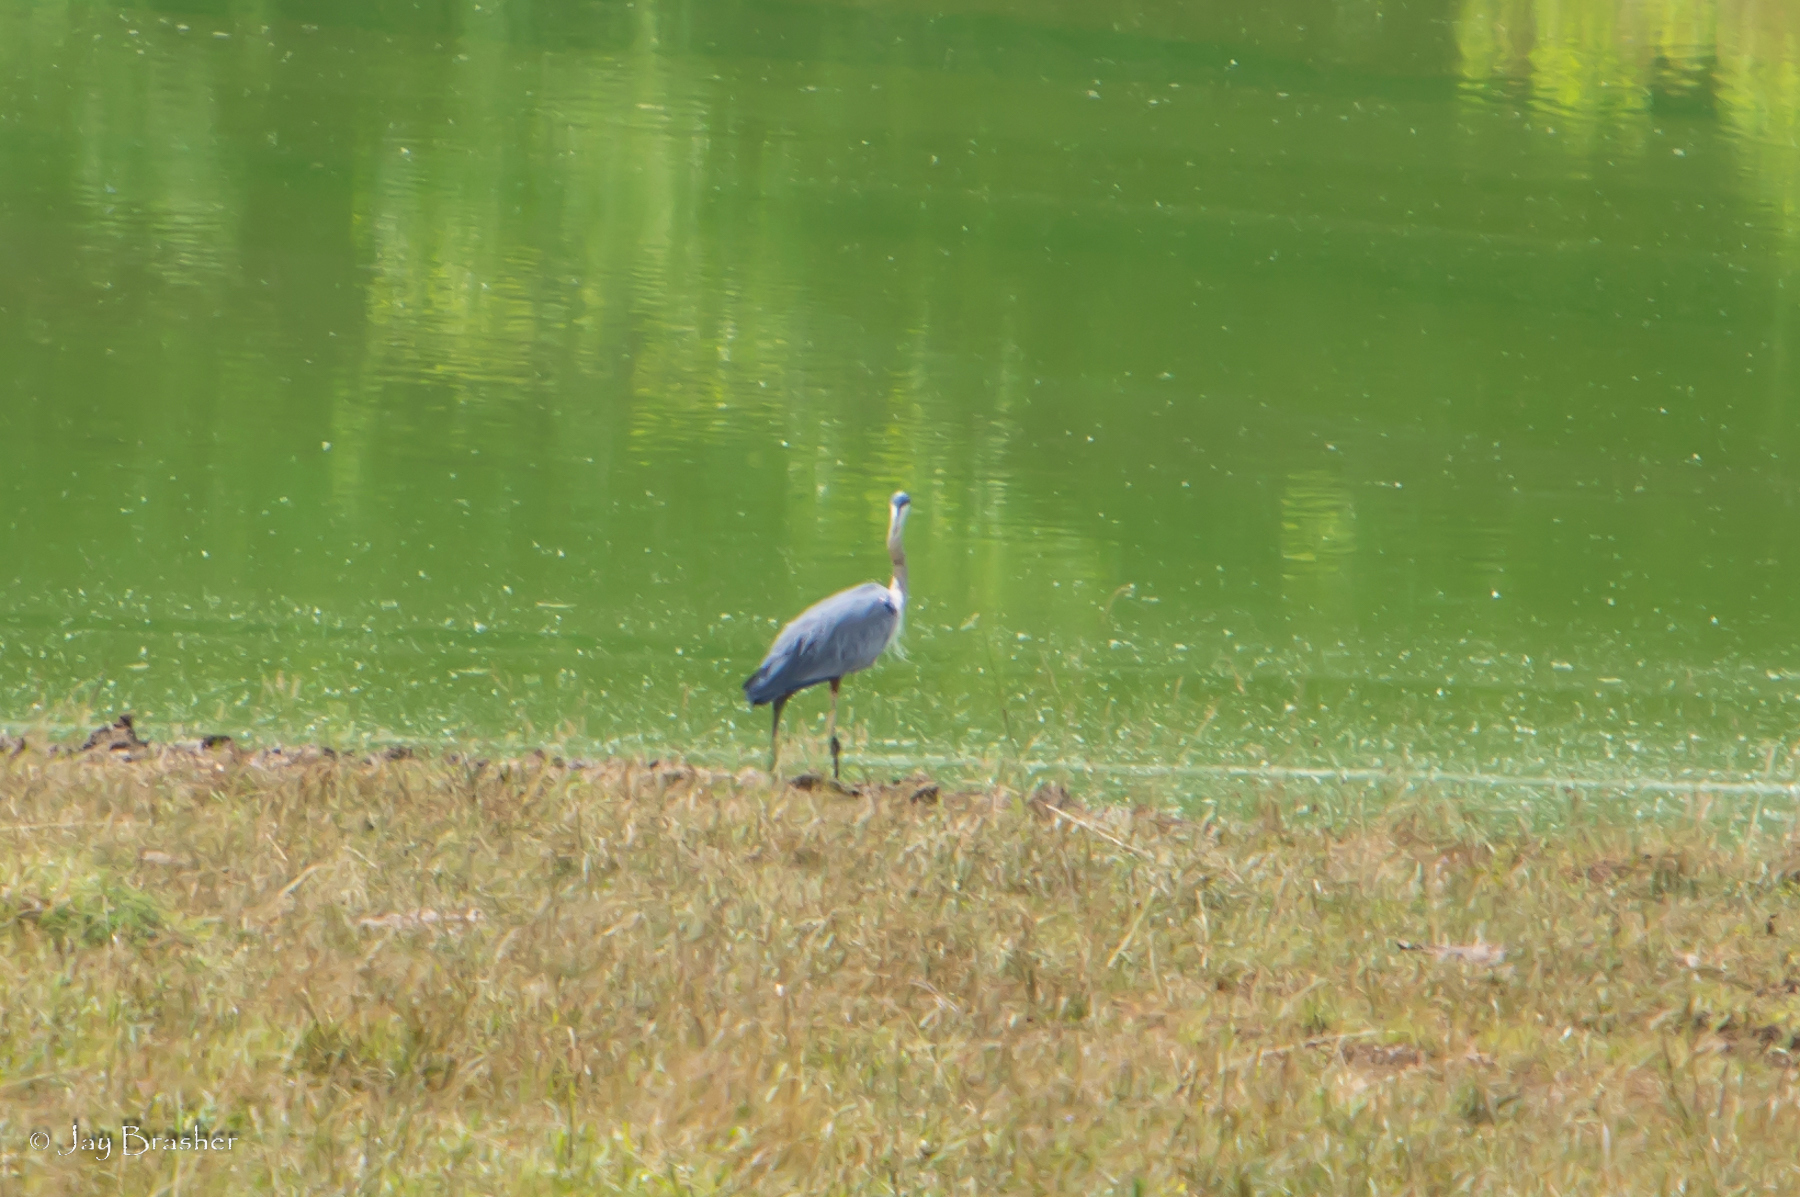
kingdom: Animalia
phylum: Chordata
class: Aves
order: Pelecaniformes
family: Ardeidae
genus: Ardea
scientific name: Ardea herodias
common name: Great blue heron
